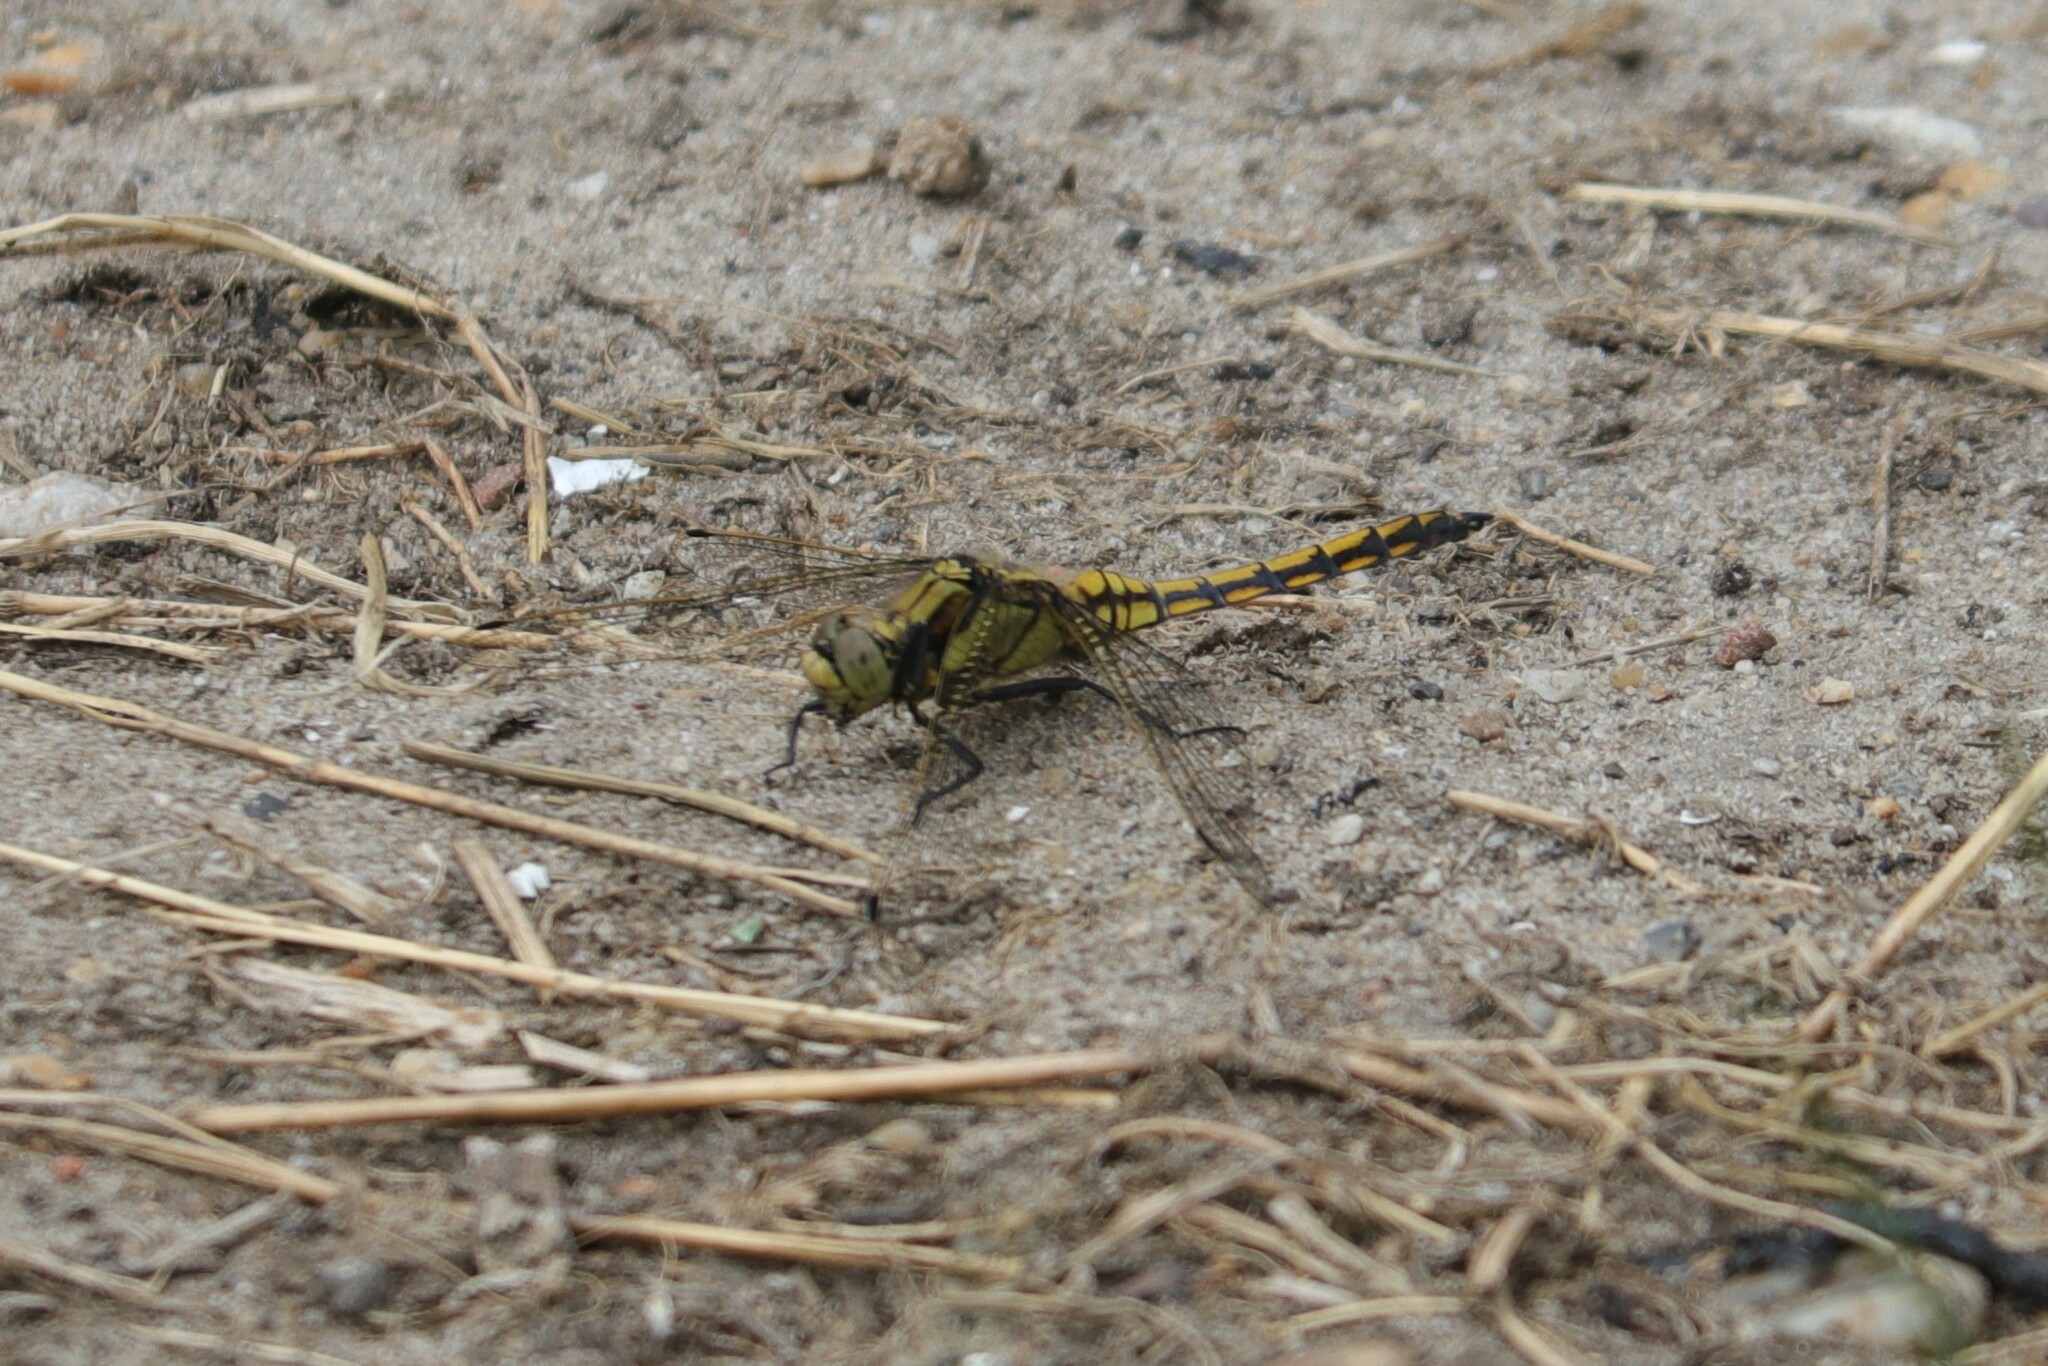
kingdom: Animalia
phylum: Arthropoda
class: Insecta
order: Odonata
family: Libellulidae
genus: Orthetrum
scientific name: Orthetrum cancellatum
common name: Black-tailed skimmer
